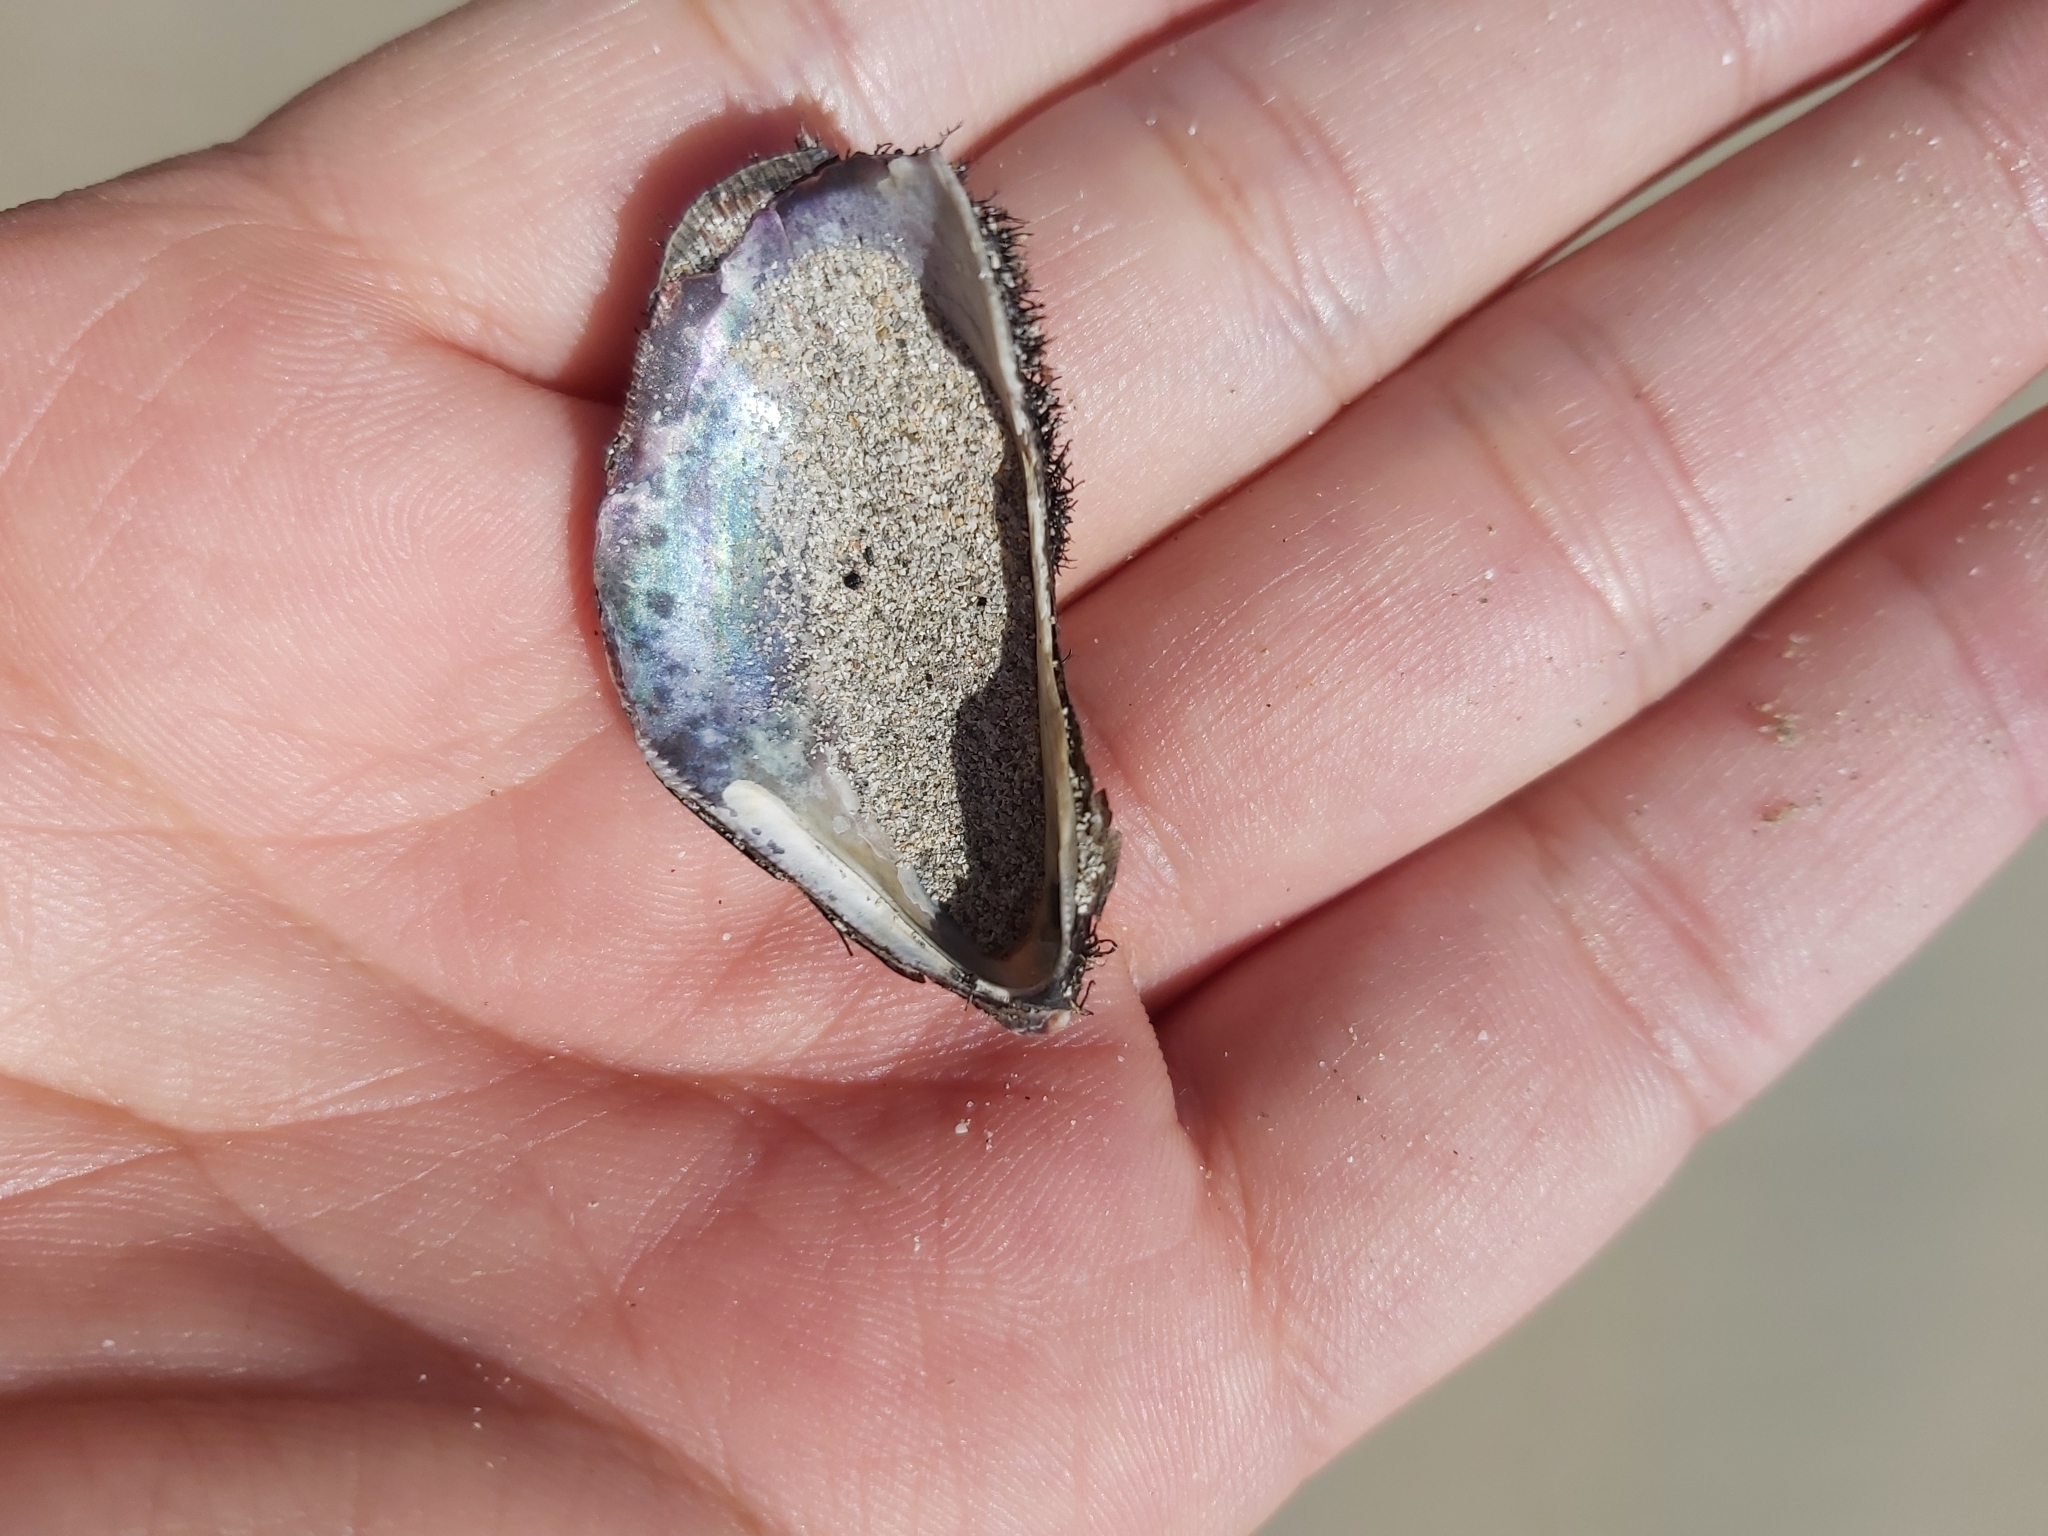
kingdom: Animalia
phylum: Mollusca
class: Bivalvia
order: Mytilida
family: Mytilidae
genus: Trichomya
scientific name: Trichomya hirsuta
